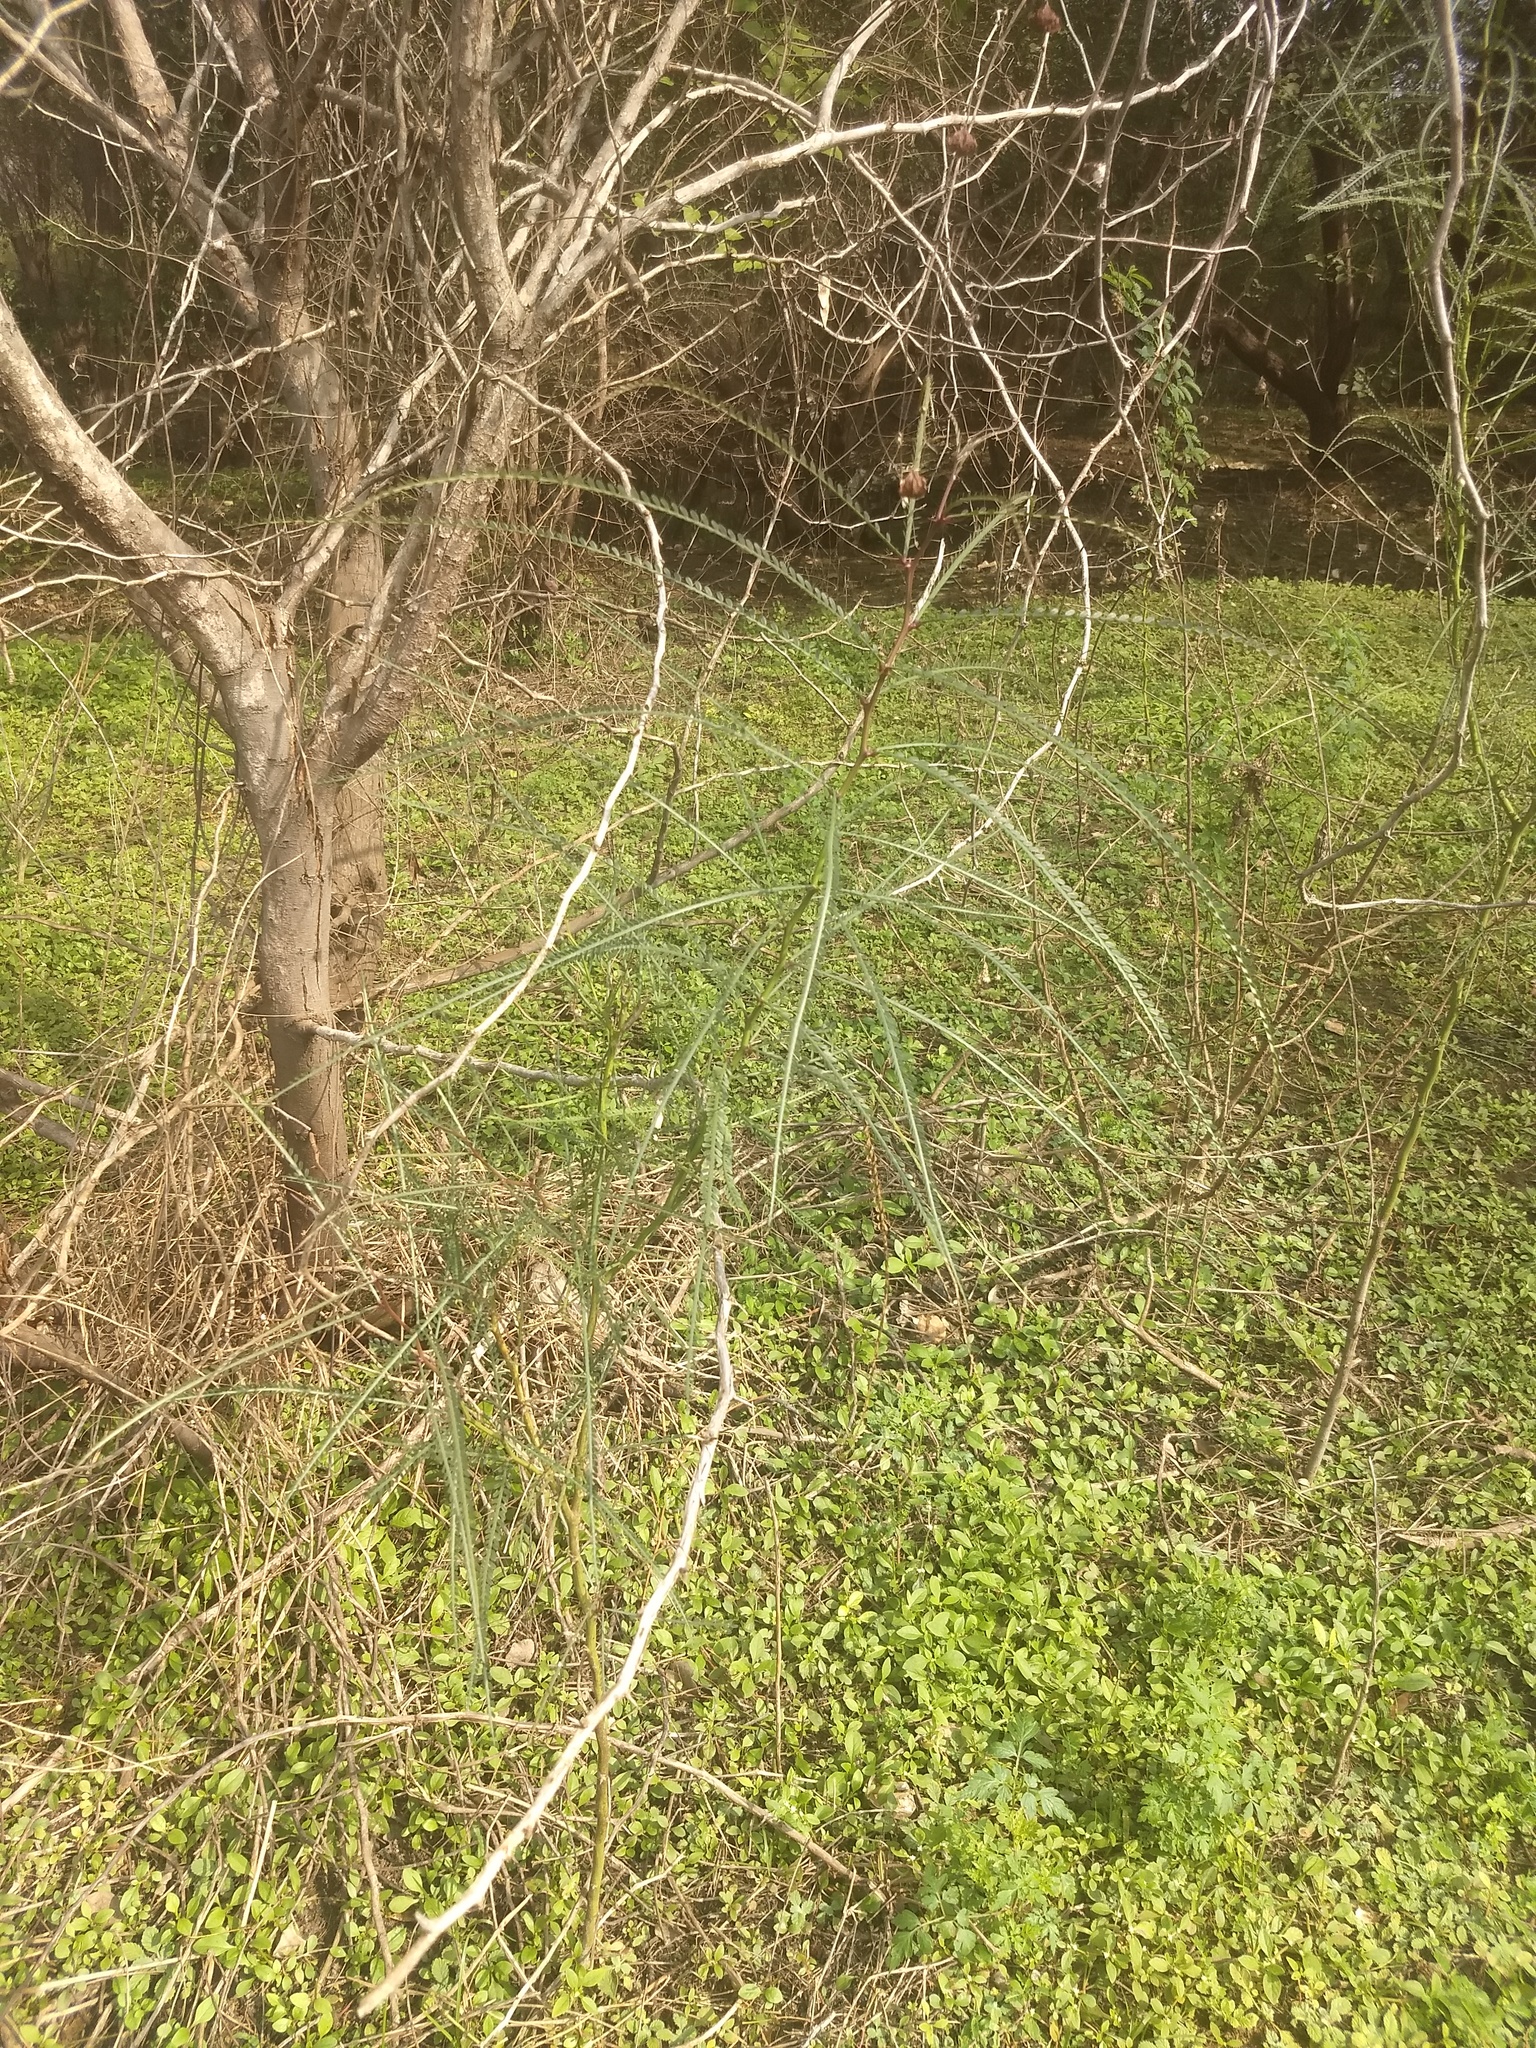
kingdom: Plantae
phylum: Tracheophyta
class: Magnoliopsida
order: Fabales
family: Fabaceae
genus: Parkinsonia
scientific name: Parkinsonia aculeata
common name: Jerusalem thorn
